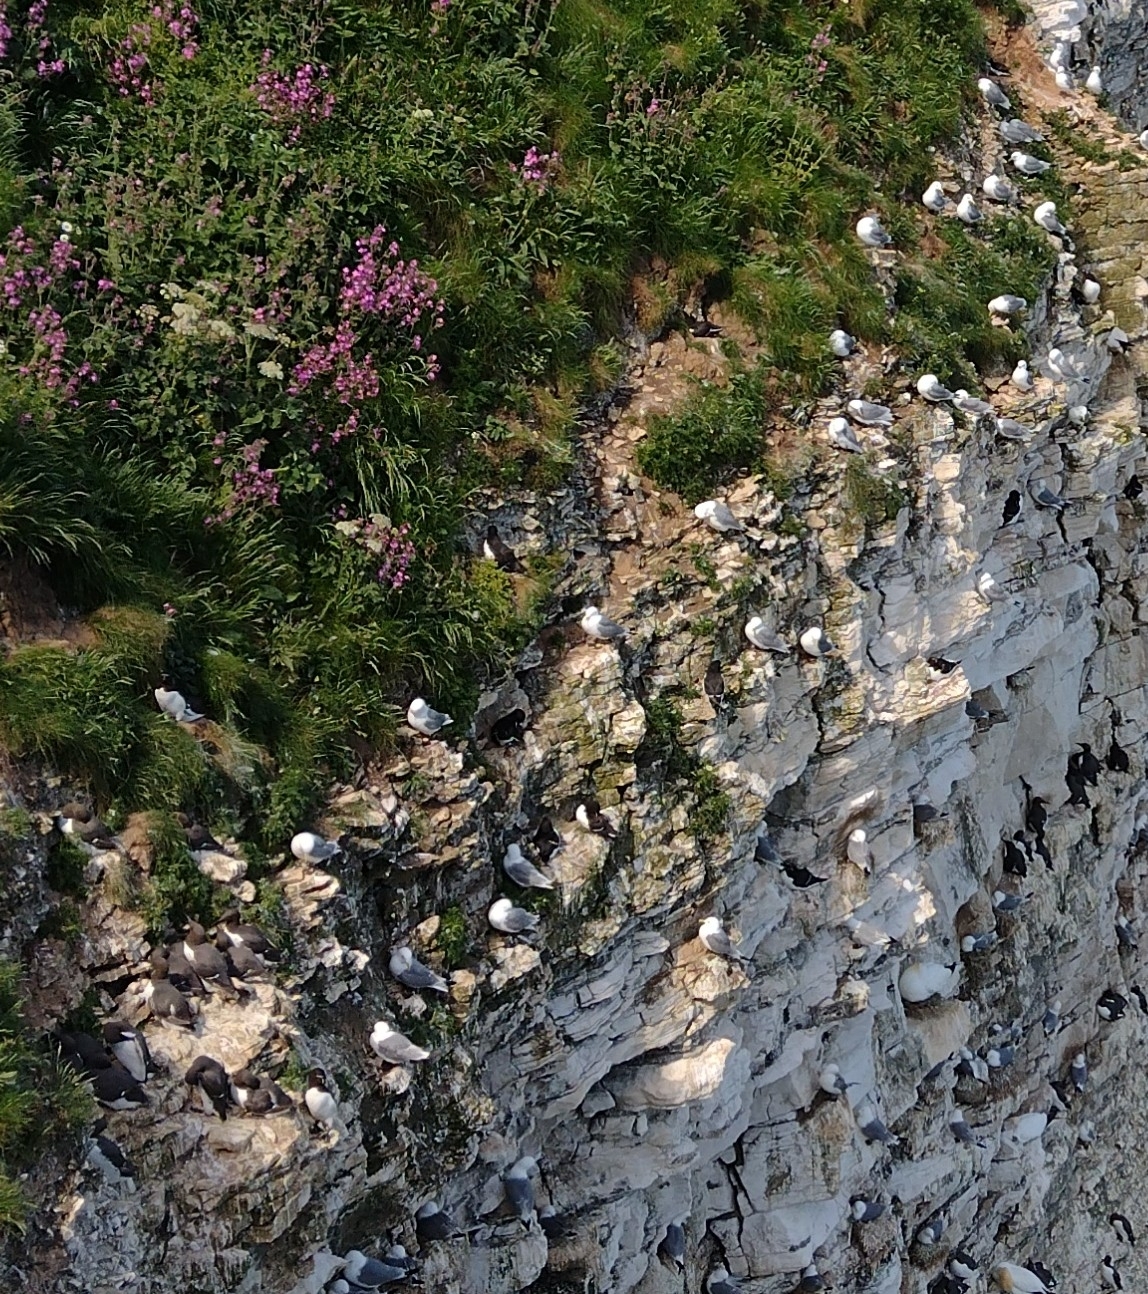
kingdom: Animalia
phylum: Chordata
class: Aves
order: Charadriiformes
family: Laridae
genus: Rissa
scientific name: Rissa tridactyla
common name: Black-legged kittiwake
